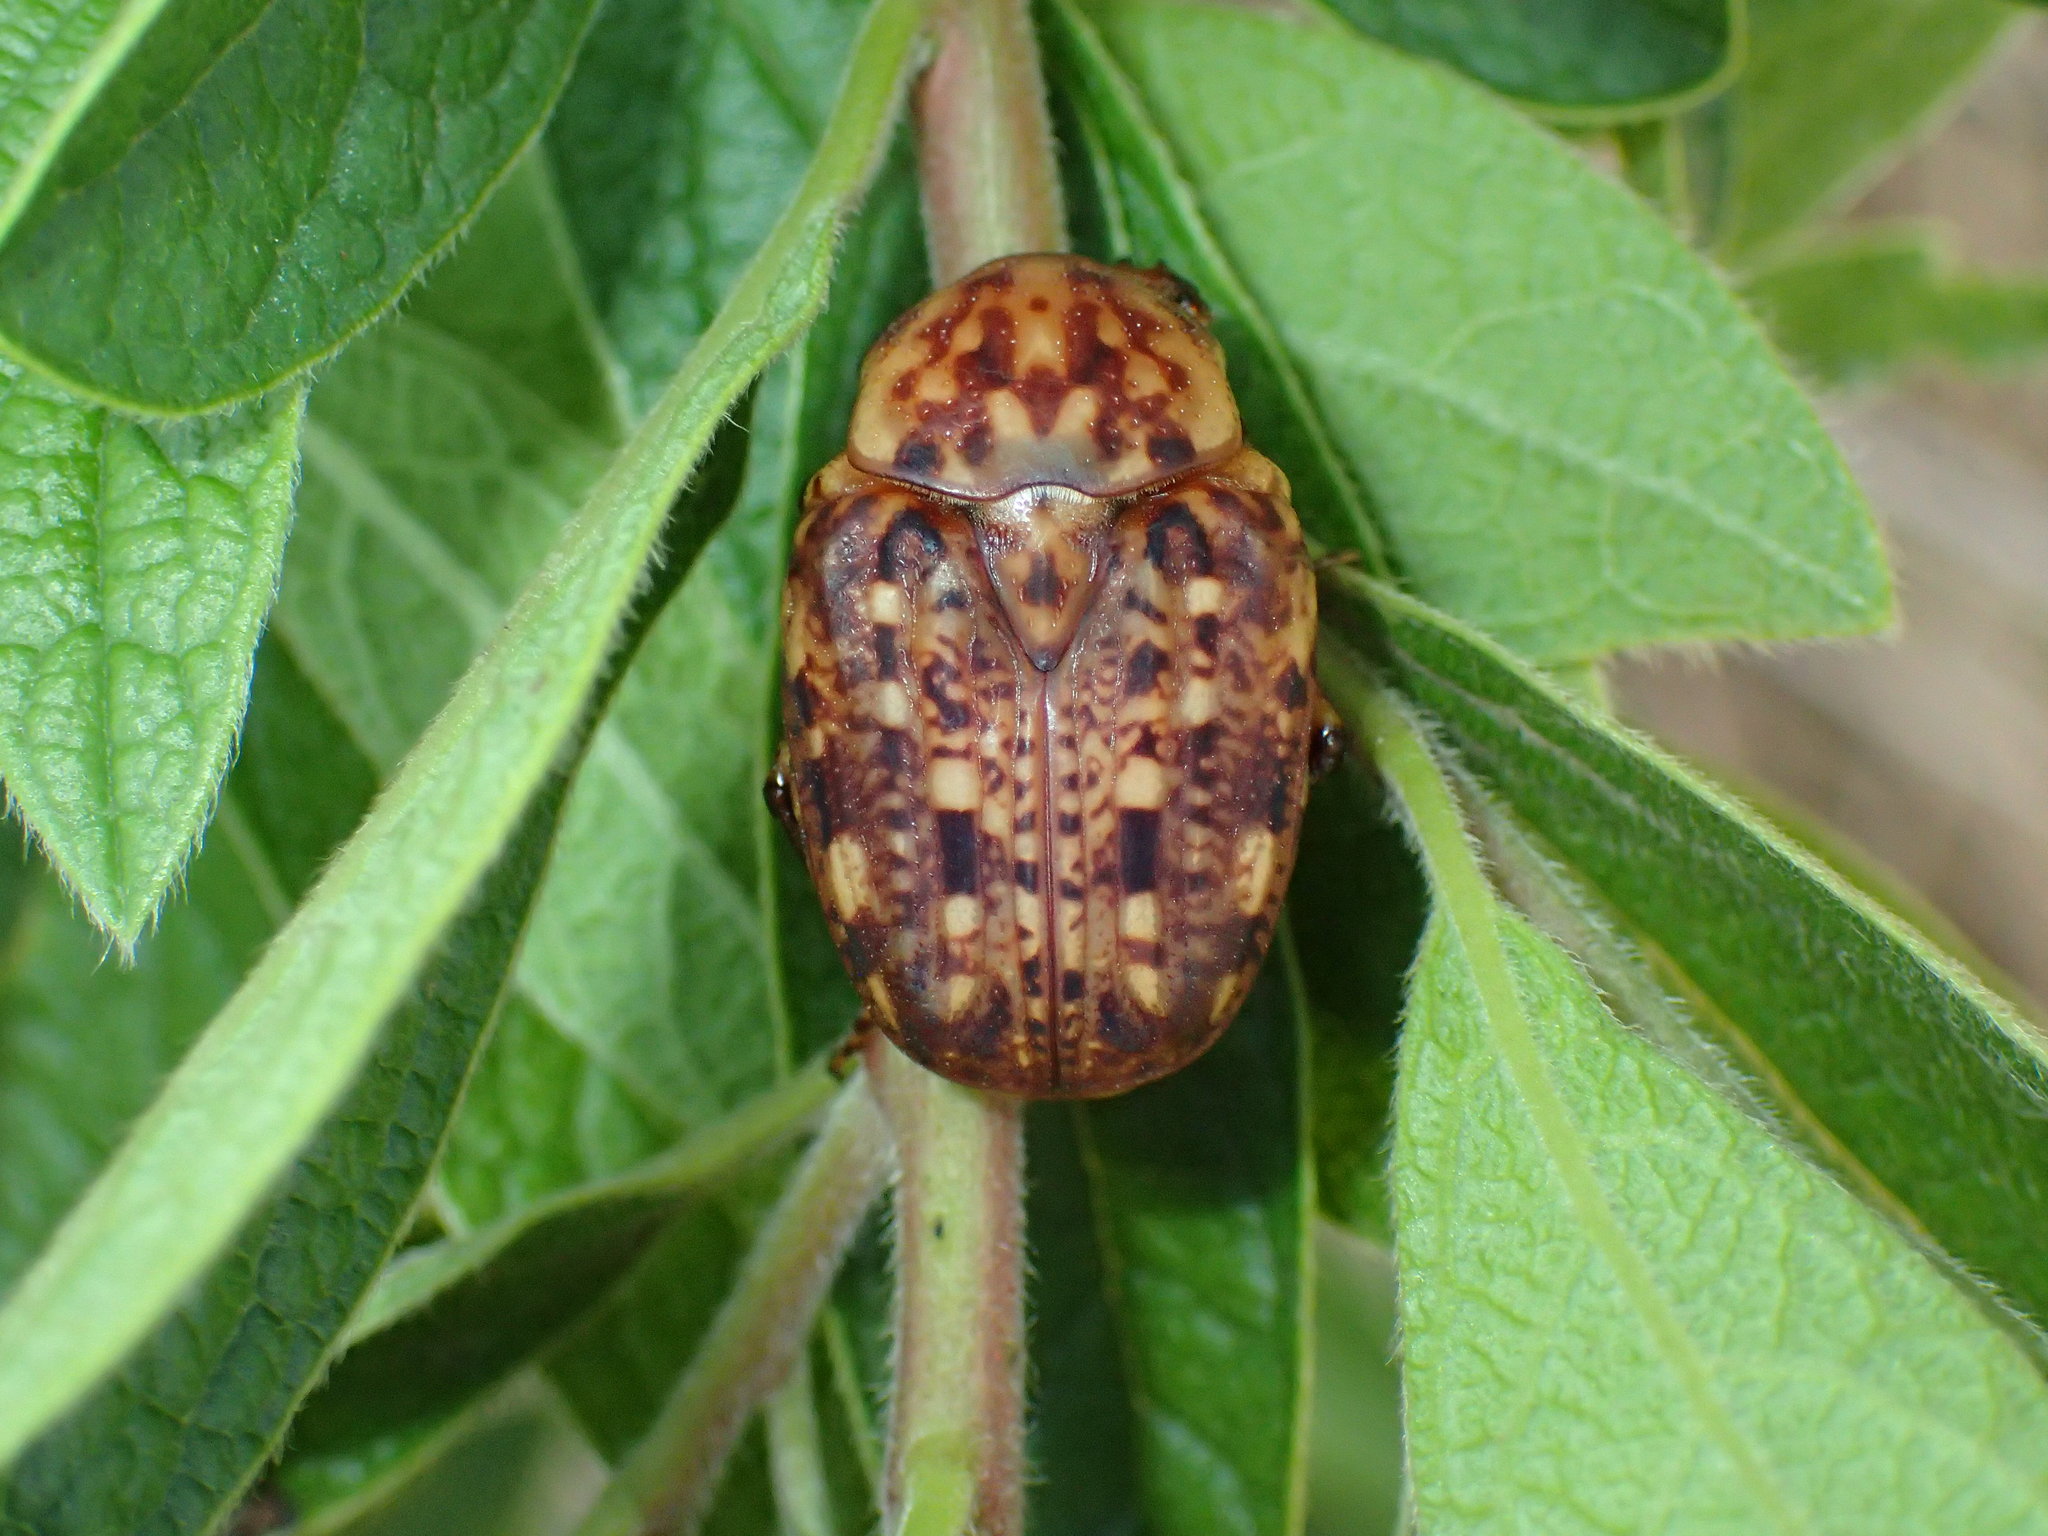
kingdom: Animalia
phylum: Arthropoda
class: Insecta
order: Coleoptera
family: Scarabaeidae
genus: Porphyronota
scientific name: Porphyronota hebraea
